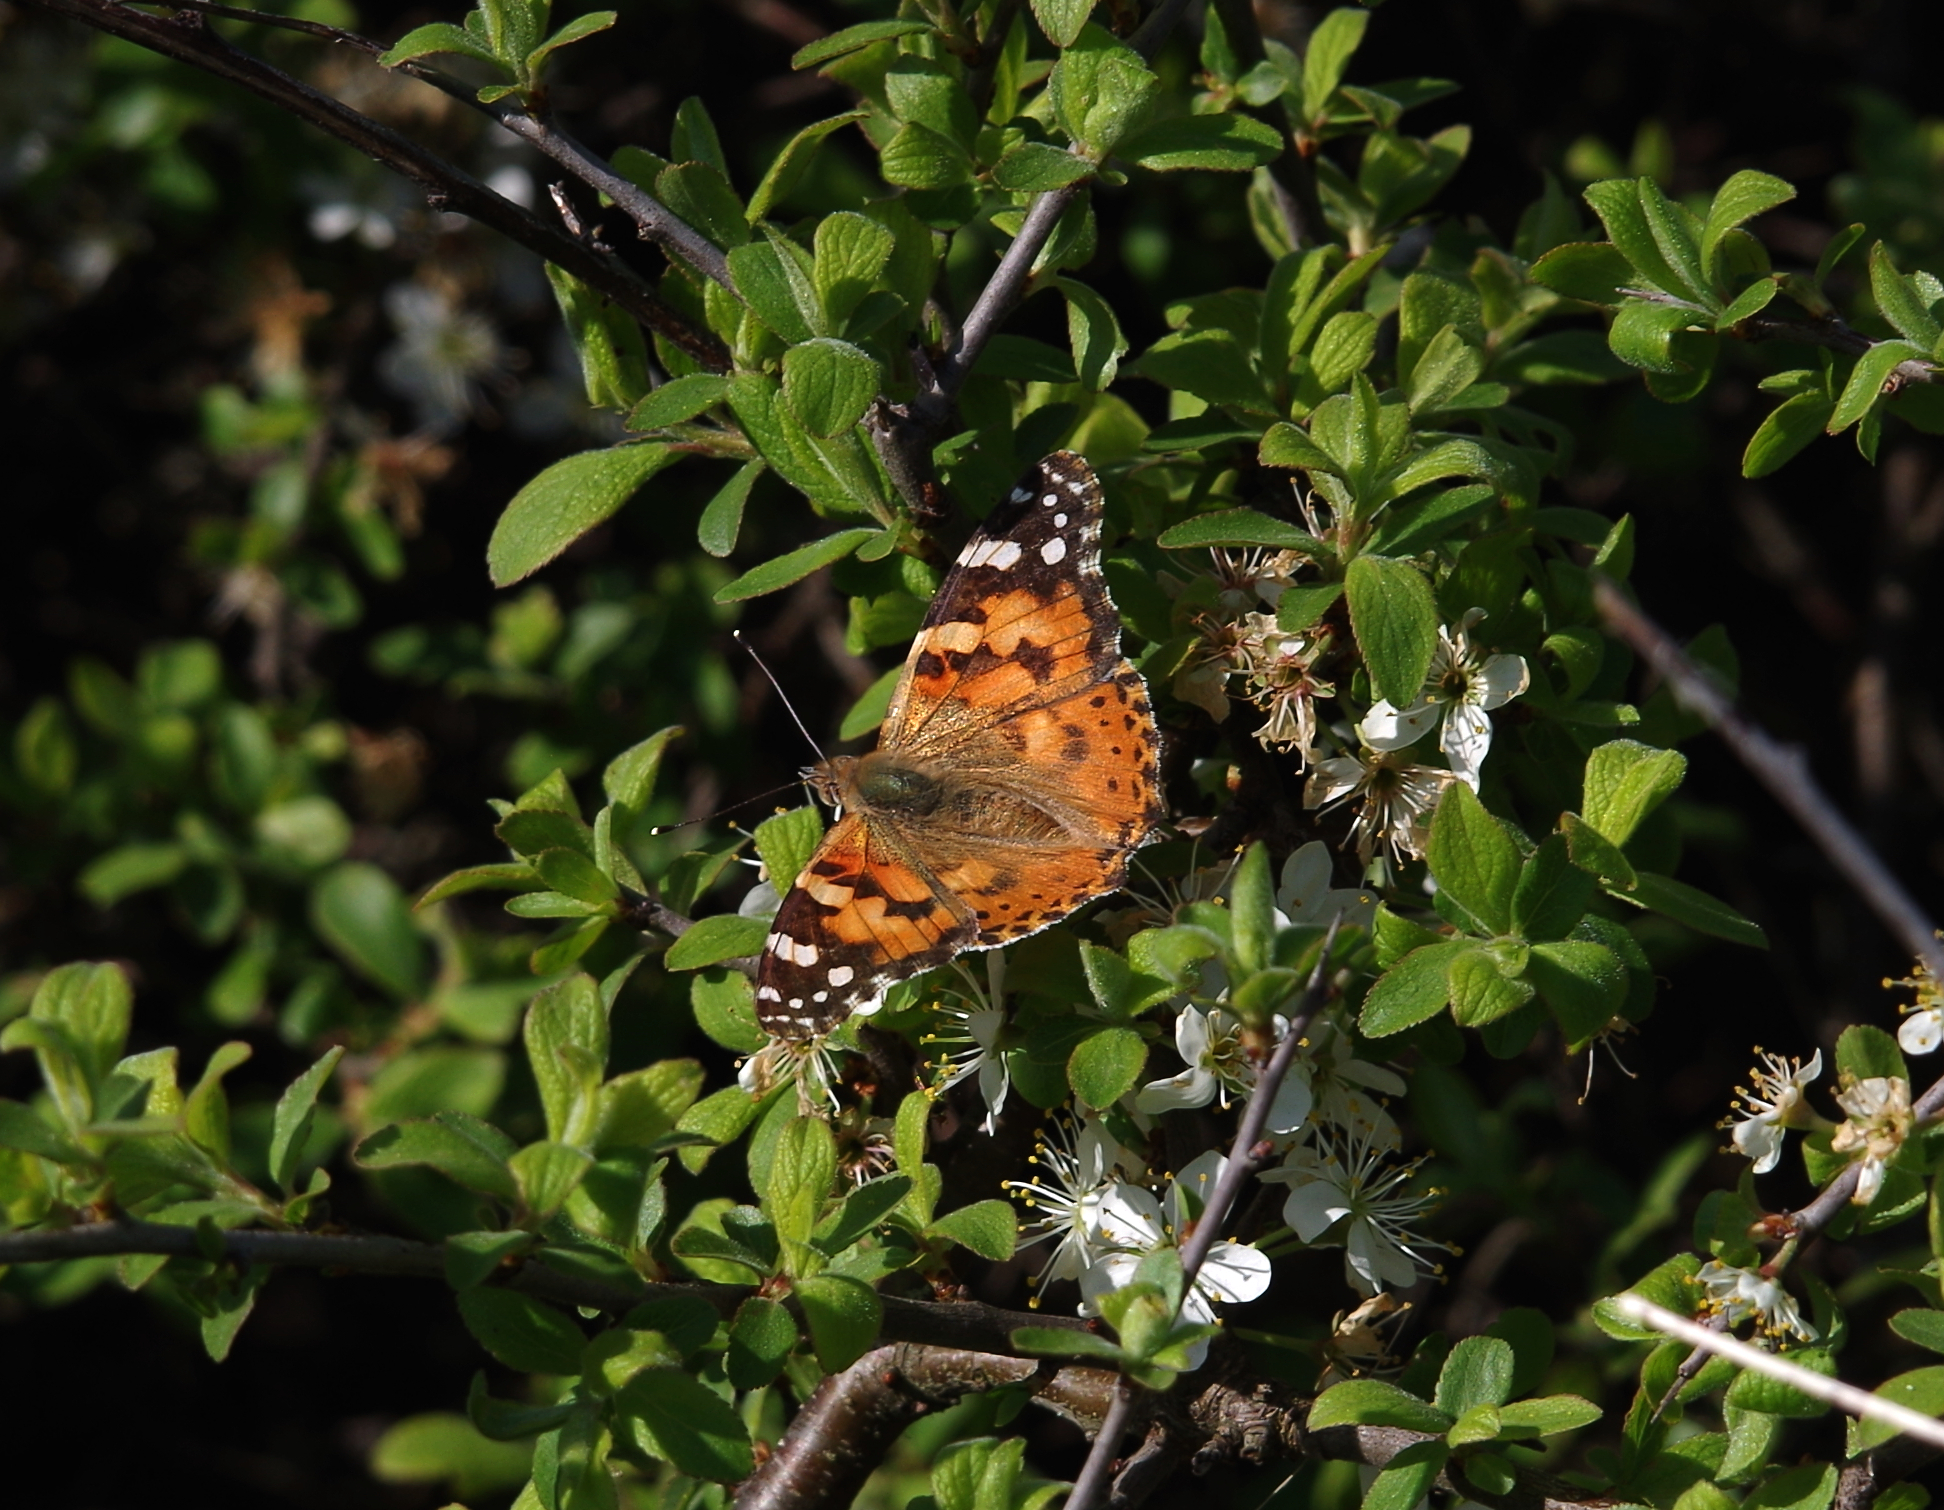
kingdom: Animalia
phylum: Arthropoda
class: Insecta
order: Lepidoptera
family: Nymphalidae
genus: Vanessa
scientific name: Vanessa cardui
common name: Painted lady
